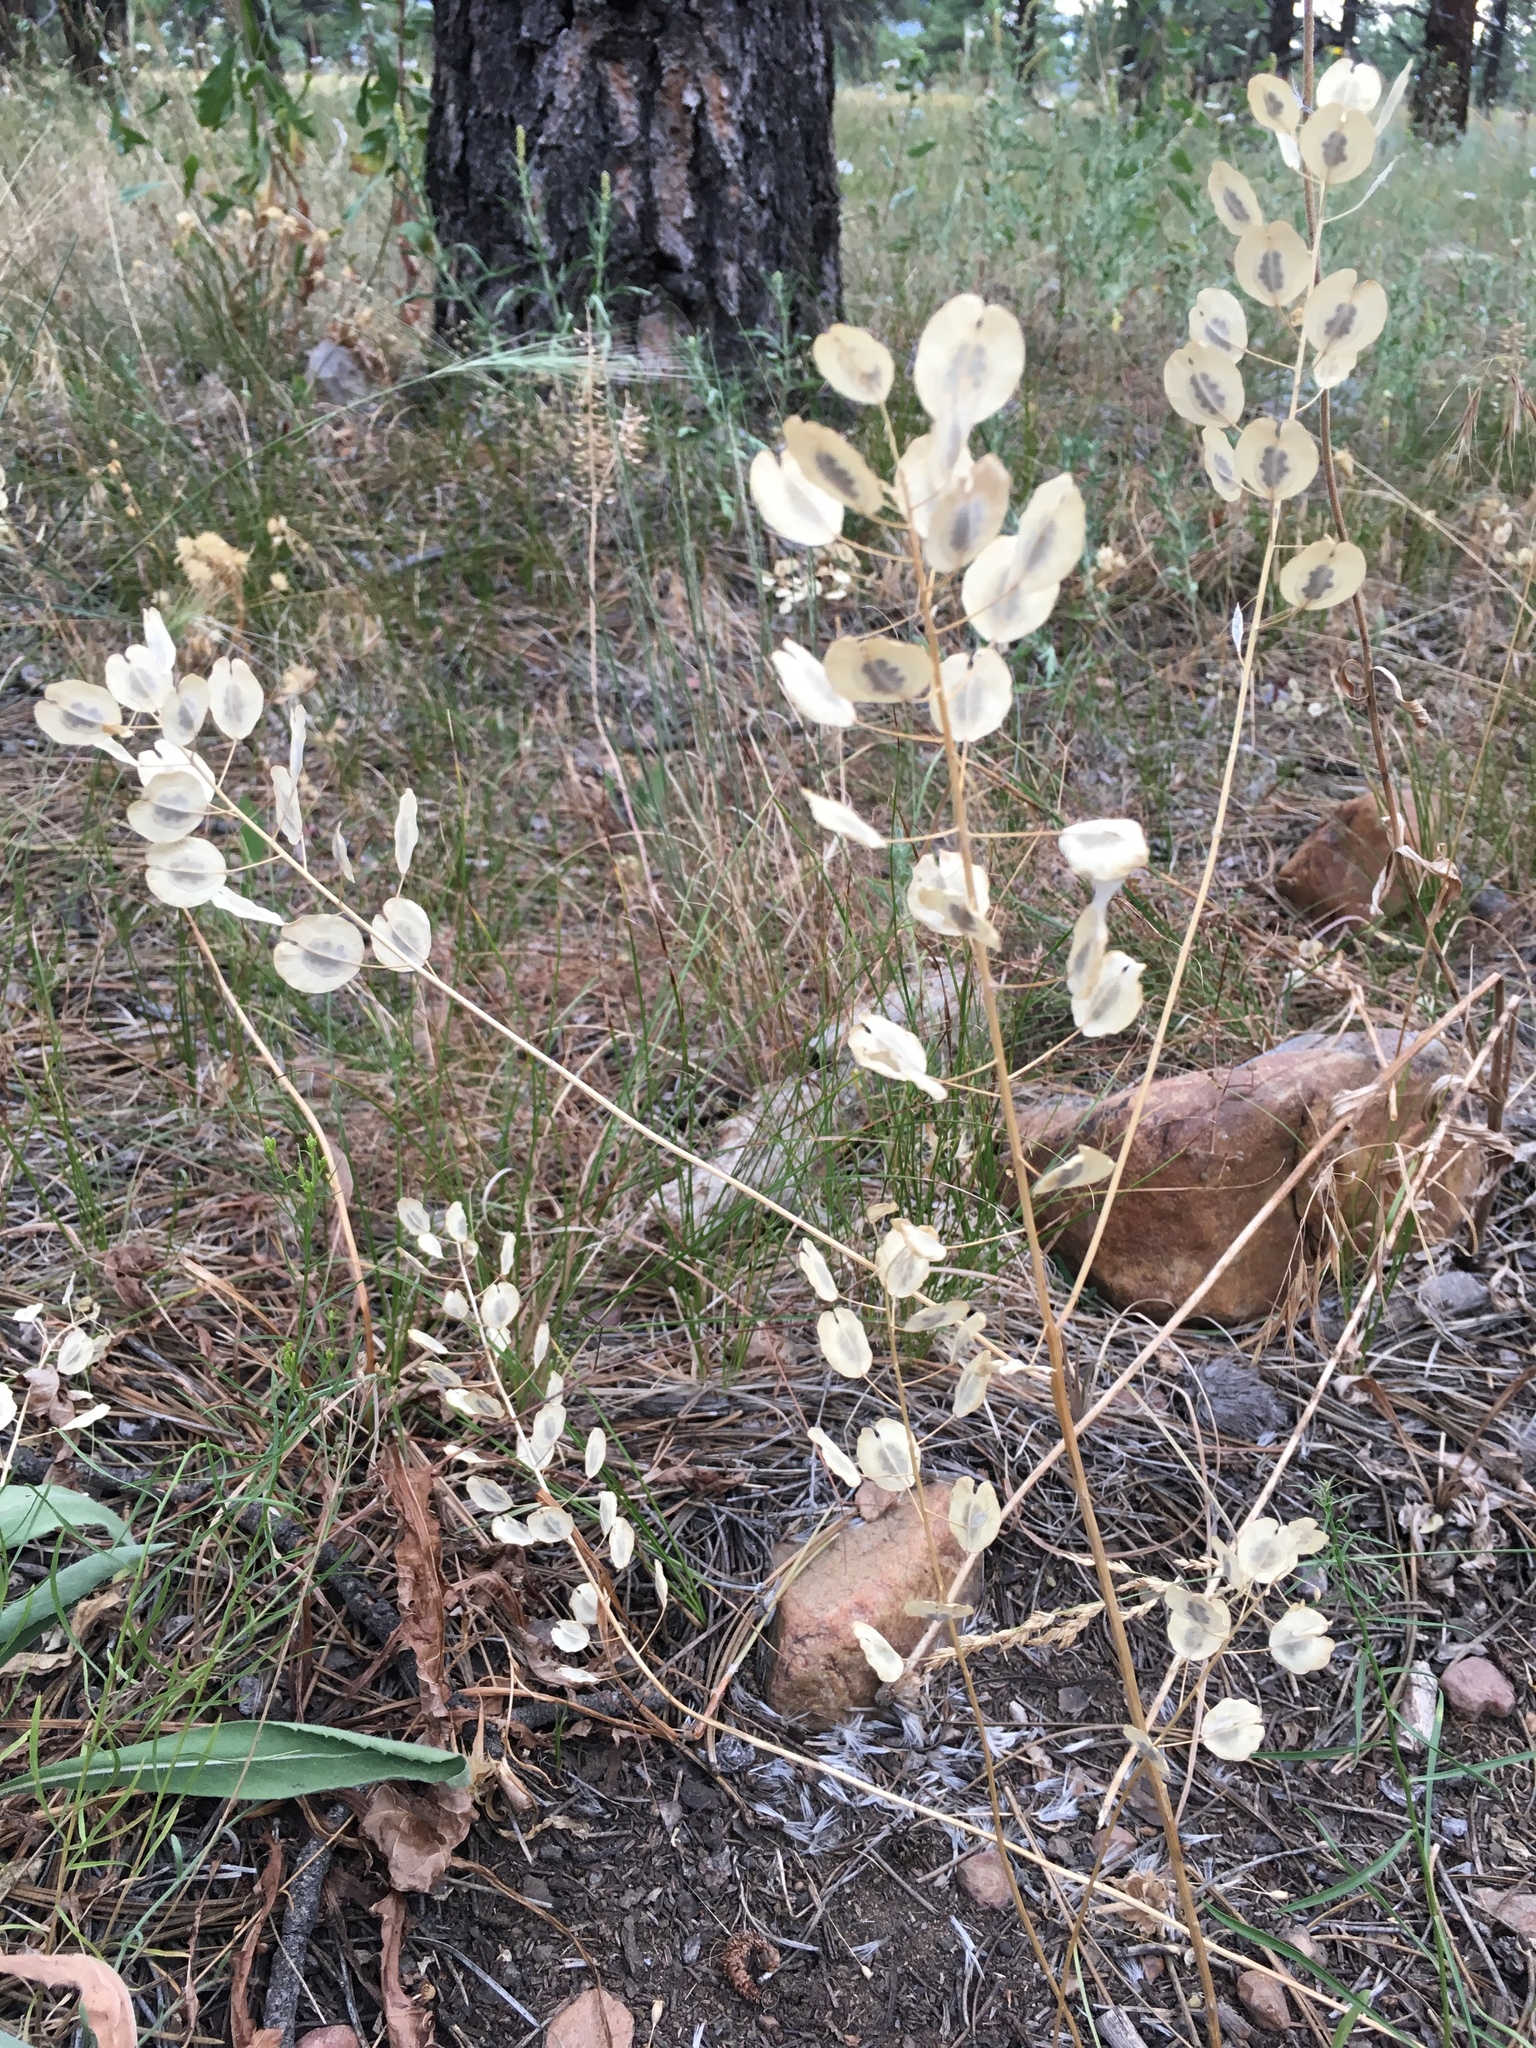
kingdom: Plantae
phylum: Tracheophyta
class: Magnoliopsida
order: Brassicales
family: Brassicaceae
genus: Thlaspi
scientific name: Thlaspi arvense
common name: Field pennycress
